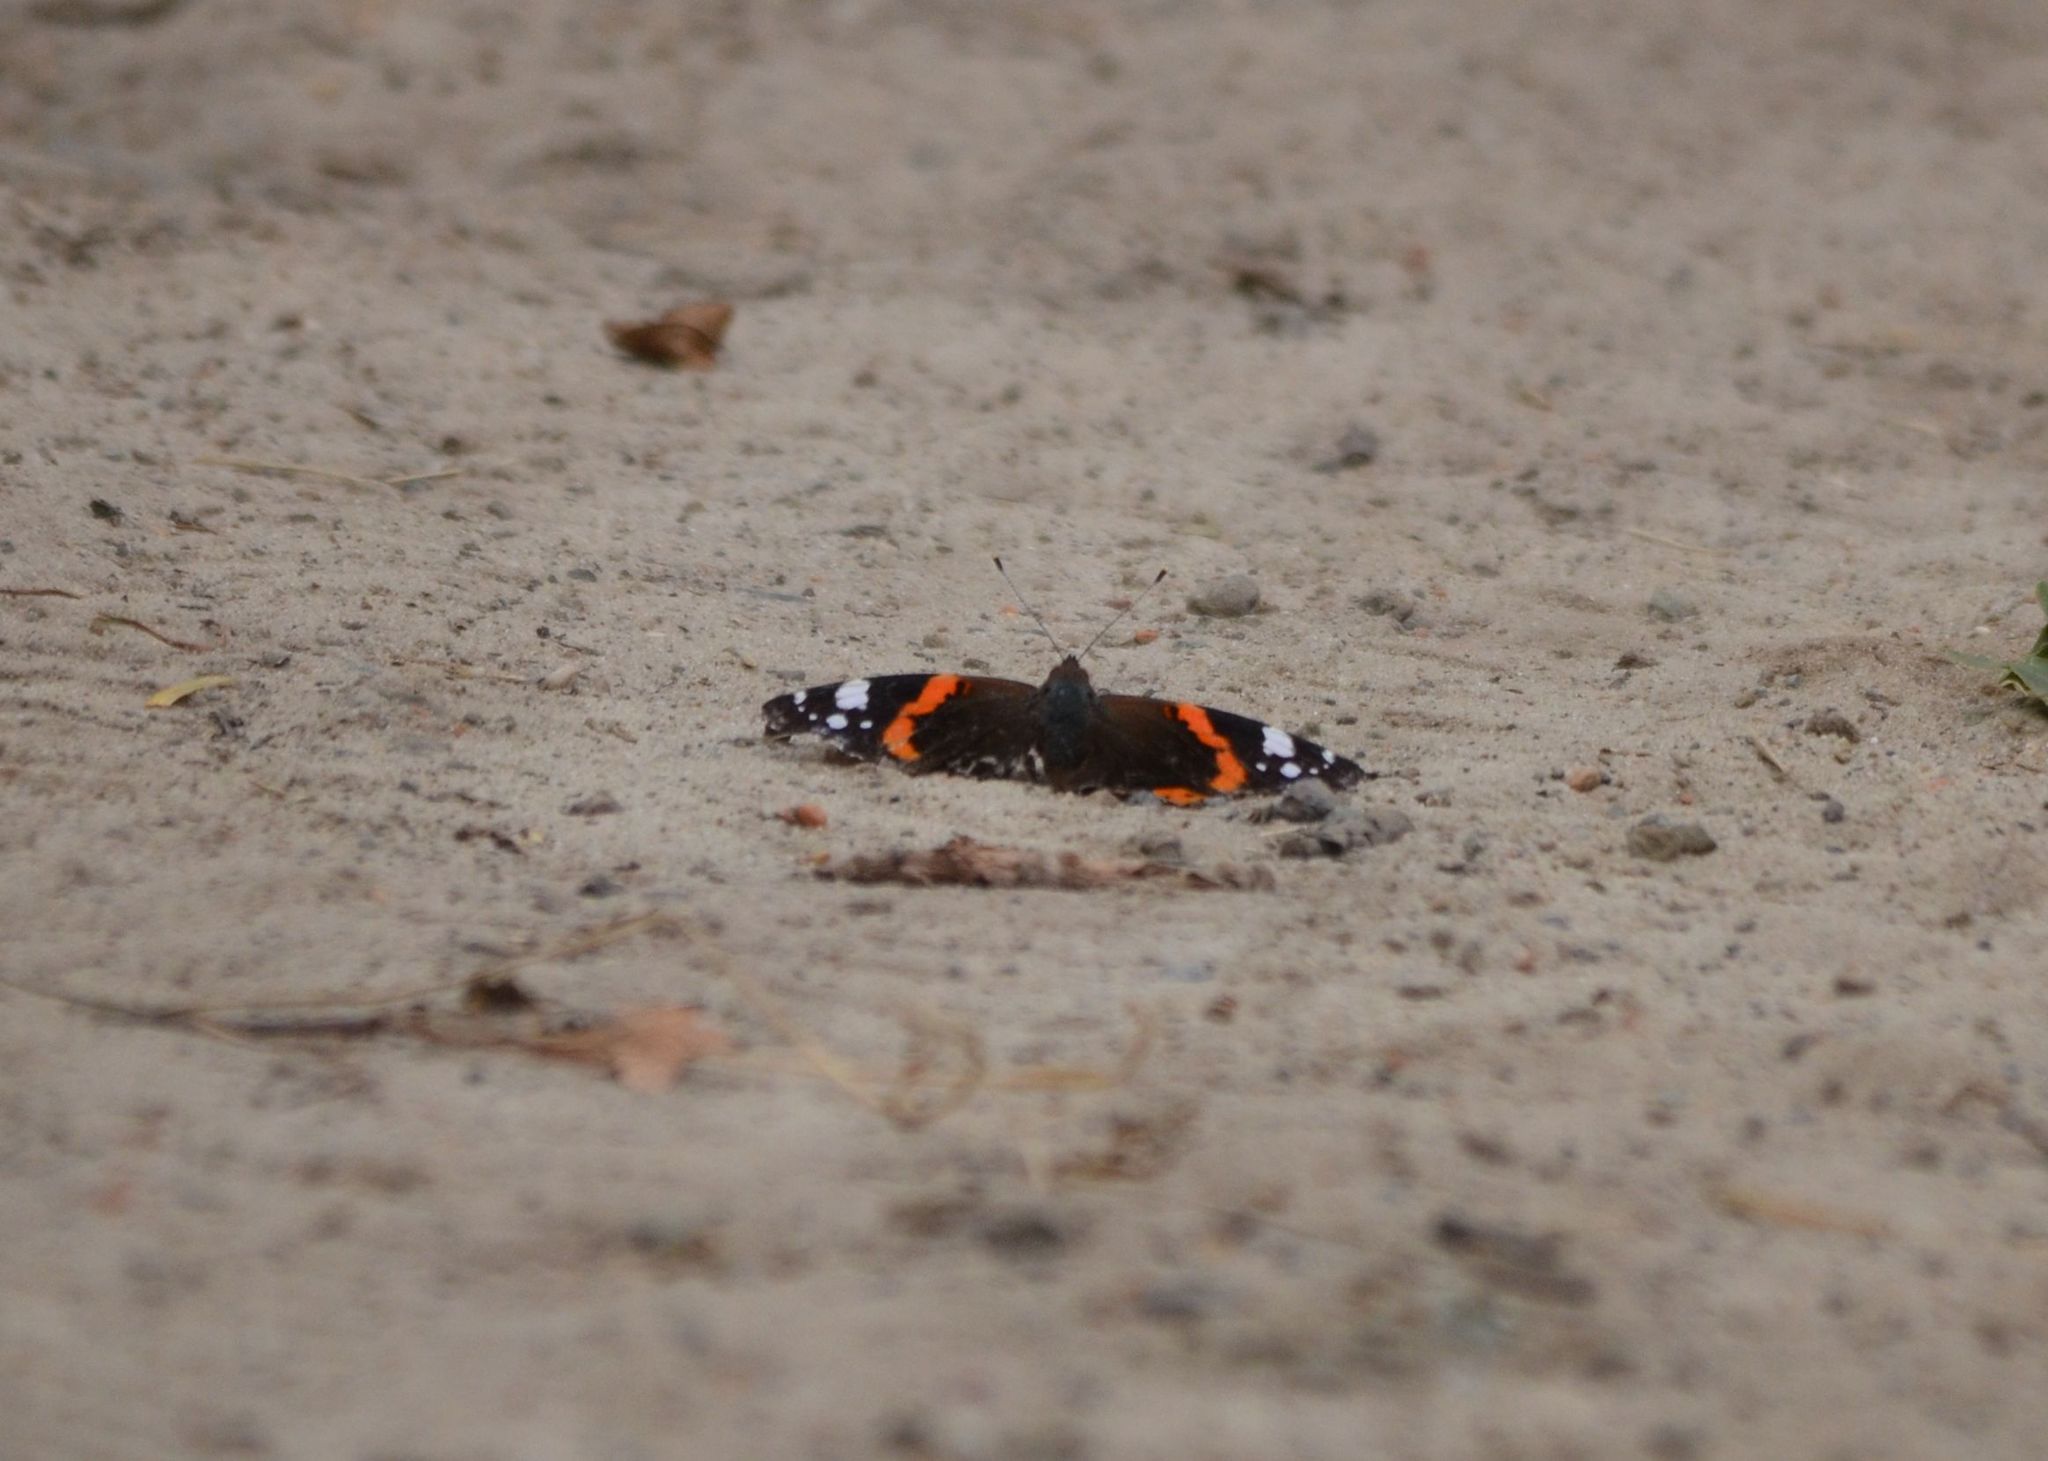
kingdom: Animalia
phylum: Arthropoda
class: Insecta
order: Lepidoptera
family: Nymphalidae
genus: Vanessa
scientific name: Vanessa atalanta
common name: Red admiral
